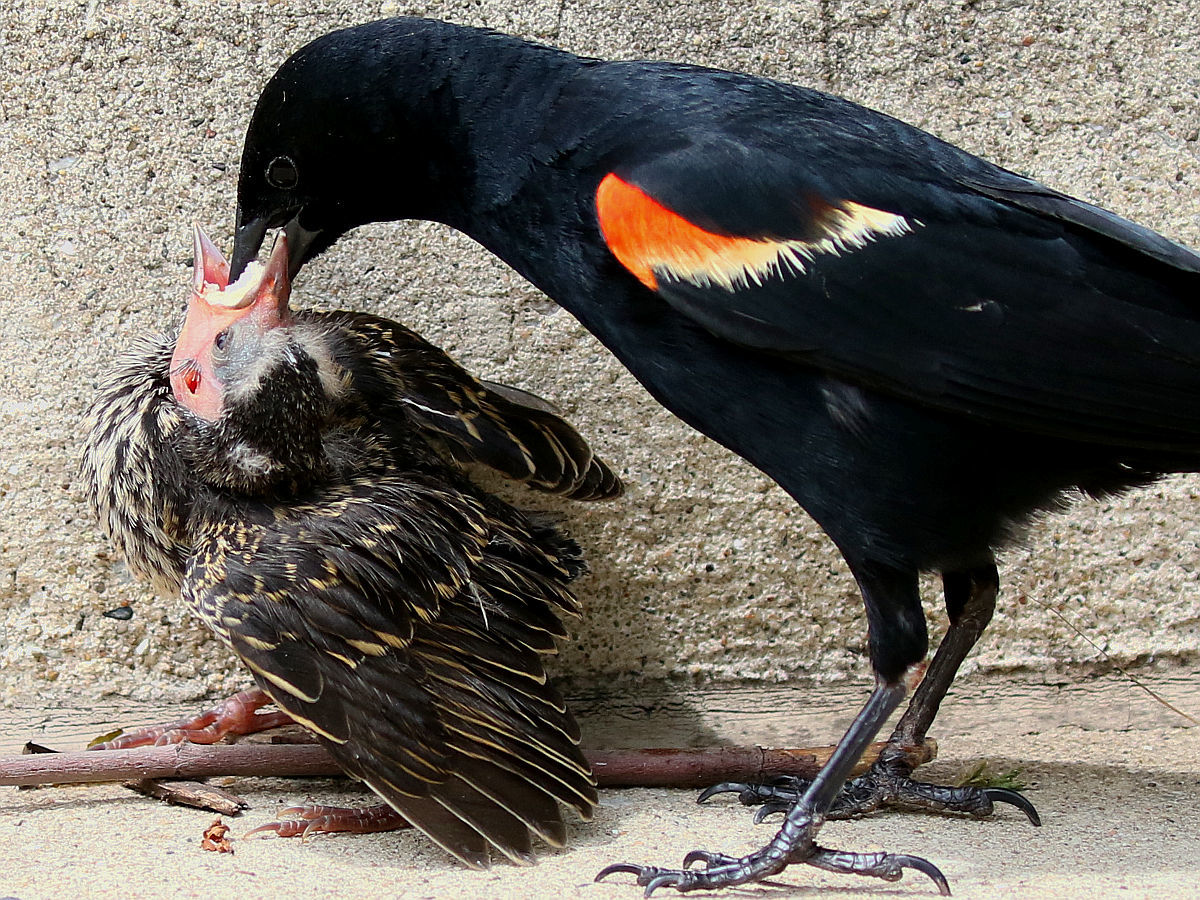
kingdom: Animalia
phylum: Chordata
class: Aves
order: Passeriformes
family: Icteridae
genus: Agelaius
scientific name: Agelaius phoeniceus
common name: Red-winged blackbird
